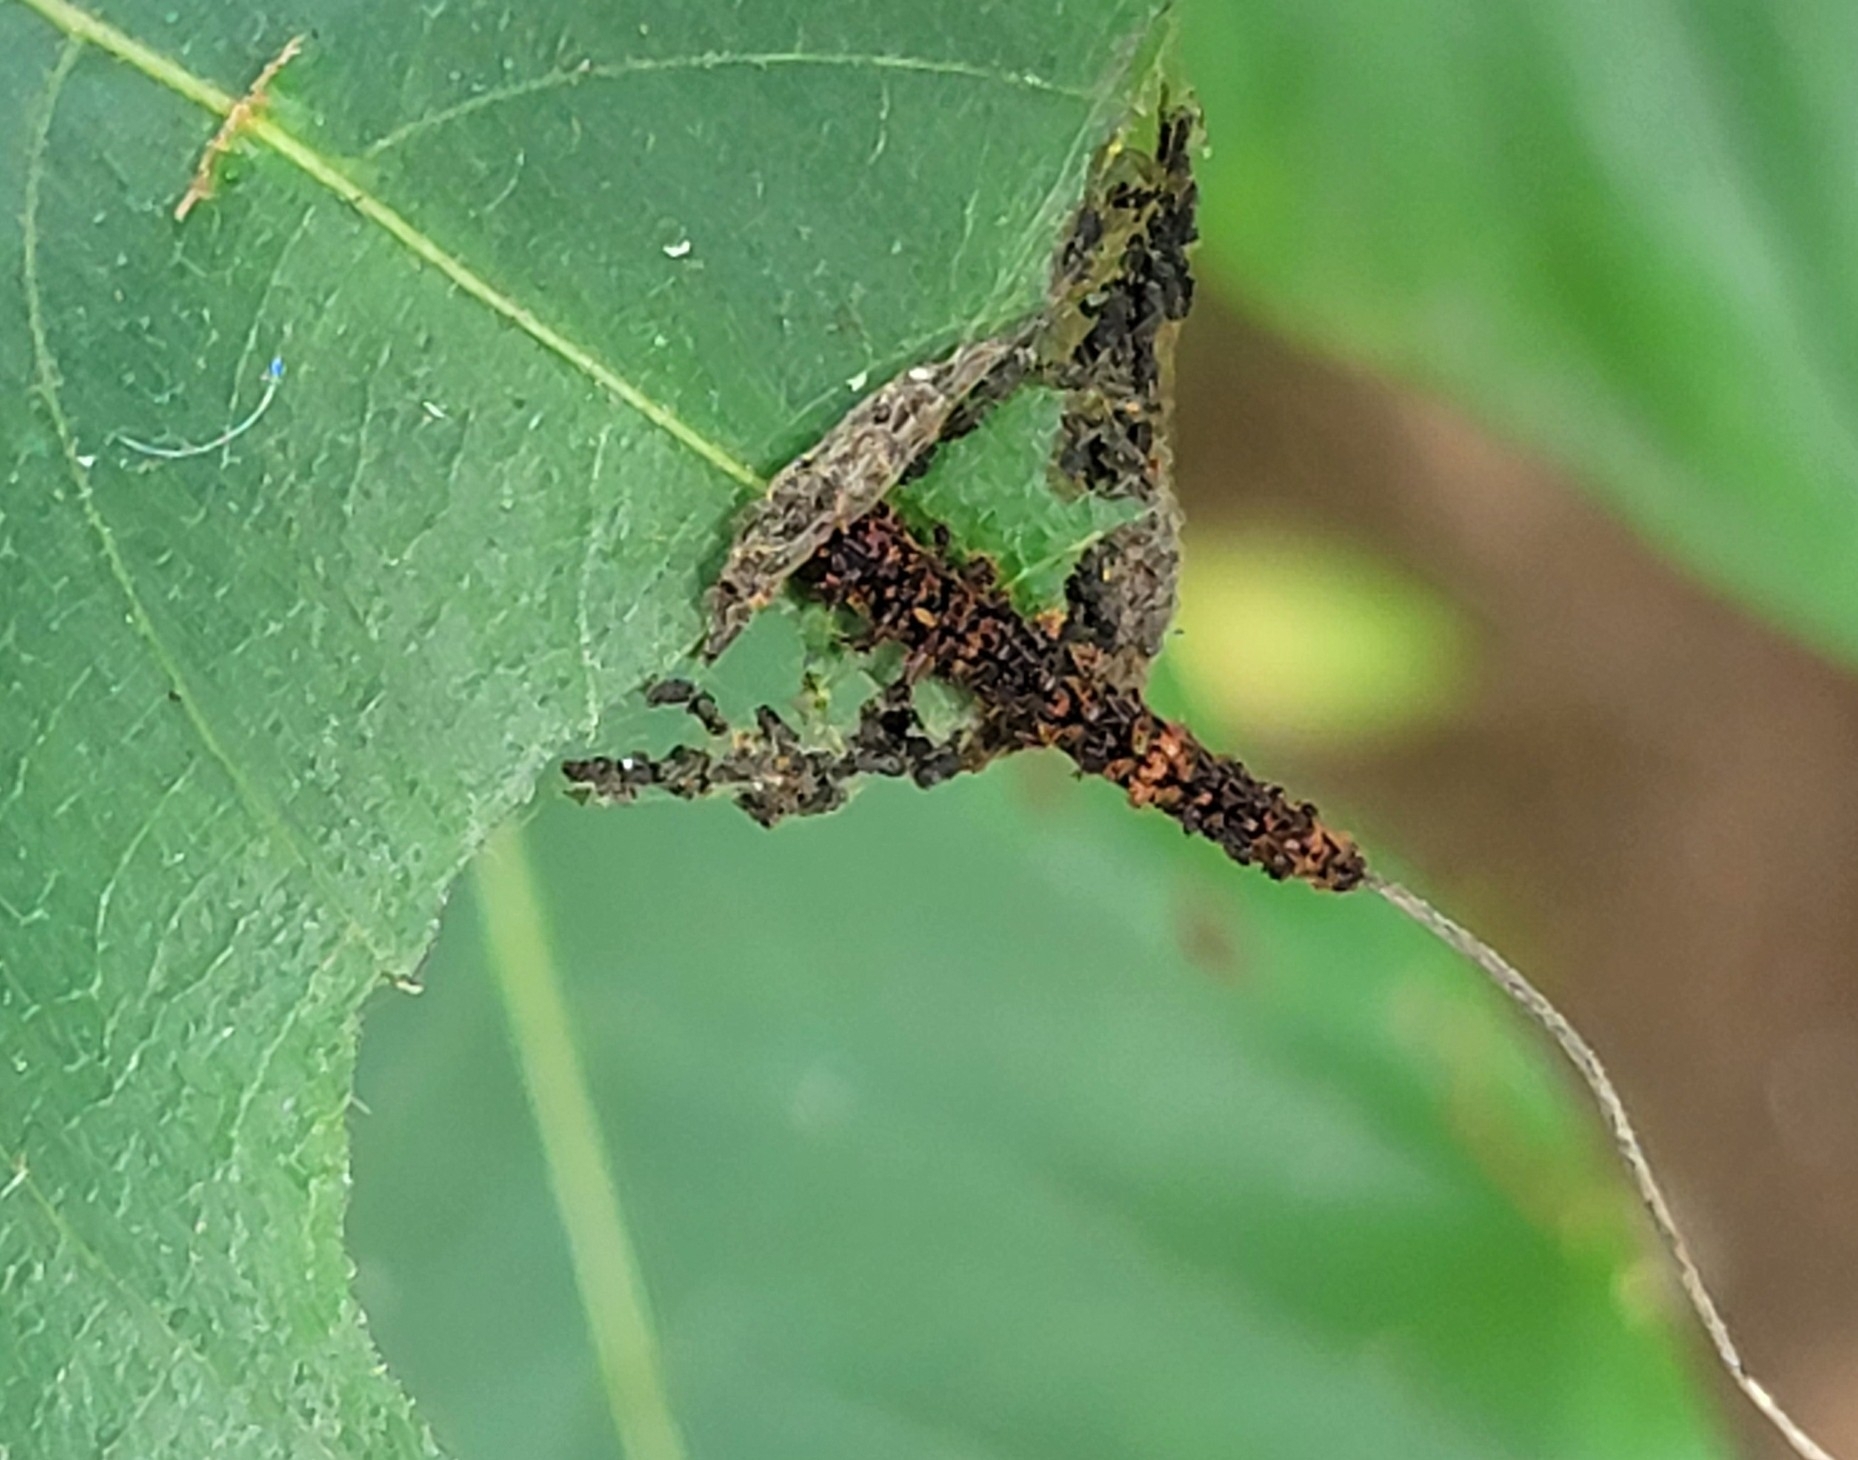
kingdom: Animalia
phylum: Arthropoda
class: Insecta
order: Lepidoptera
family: Nymphalidae
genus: Limenitis
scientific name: Limenitis Moduza procris
